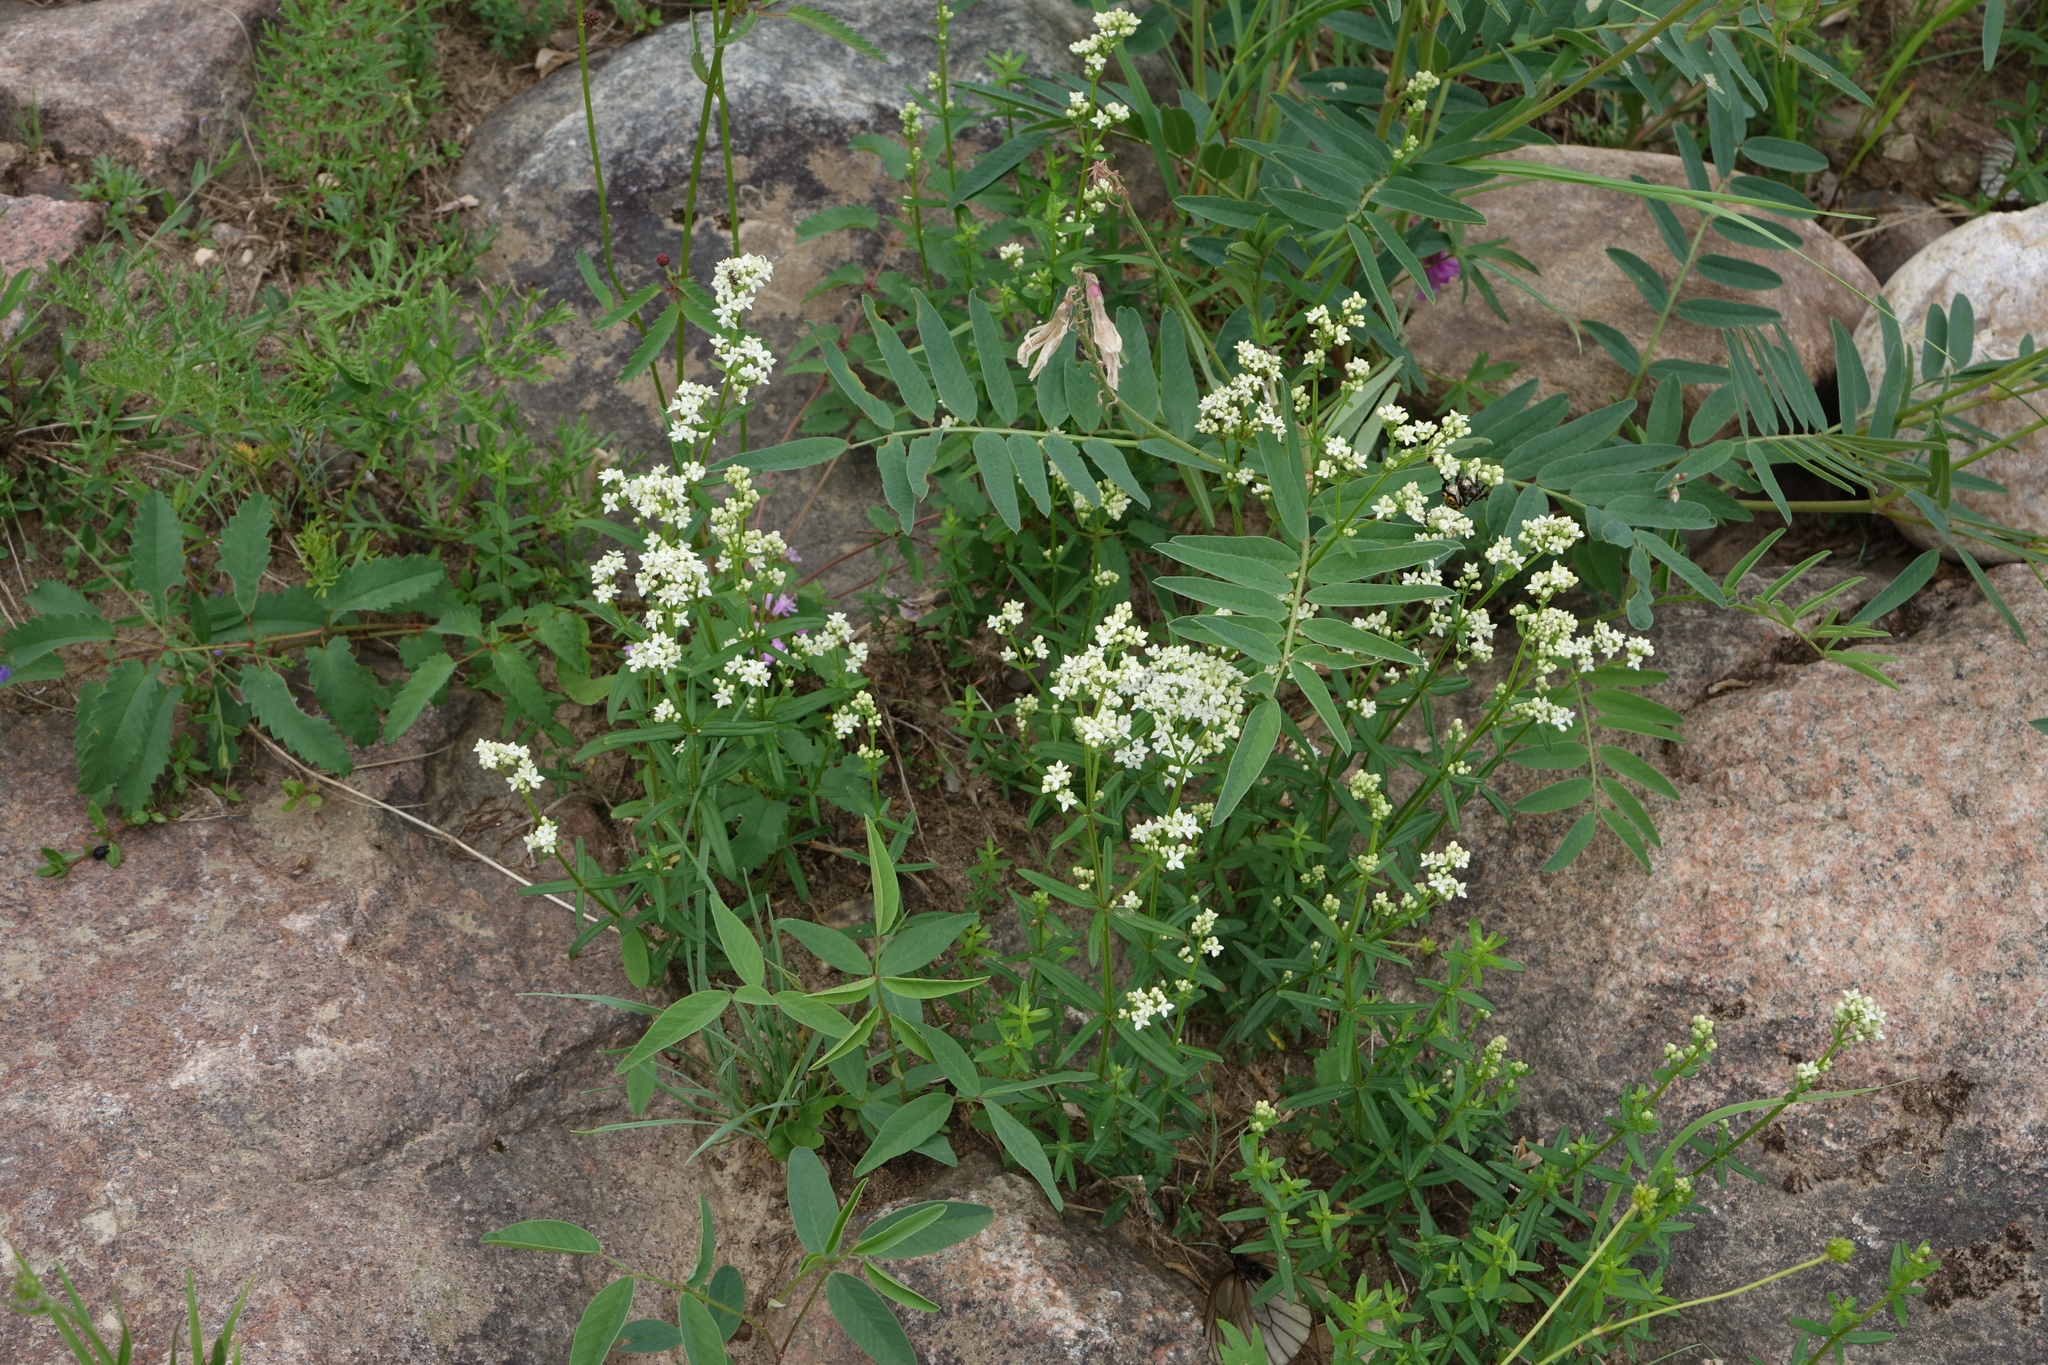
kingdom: Plantae
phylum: Tracheophyta
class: Magnoliopsida
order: Gentianales
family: Rubiaceae
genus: Galium
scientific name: Galium boreale
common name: Northern bedstraw
